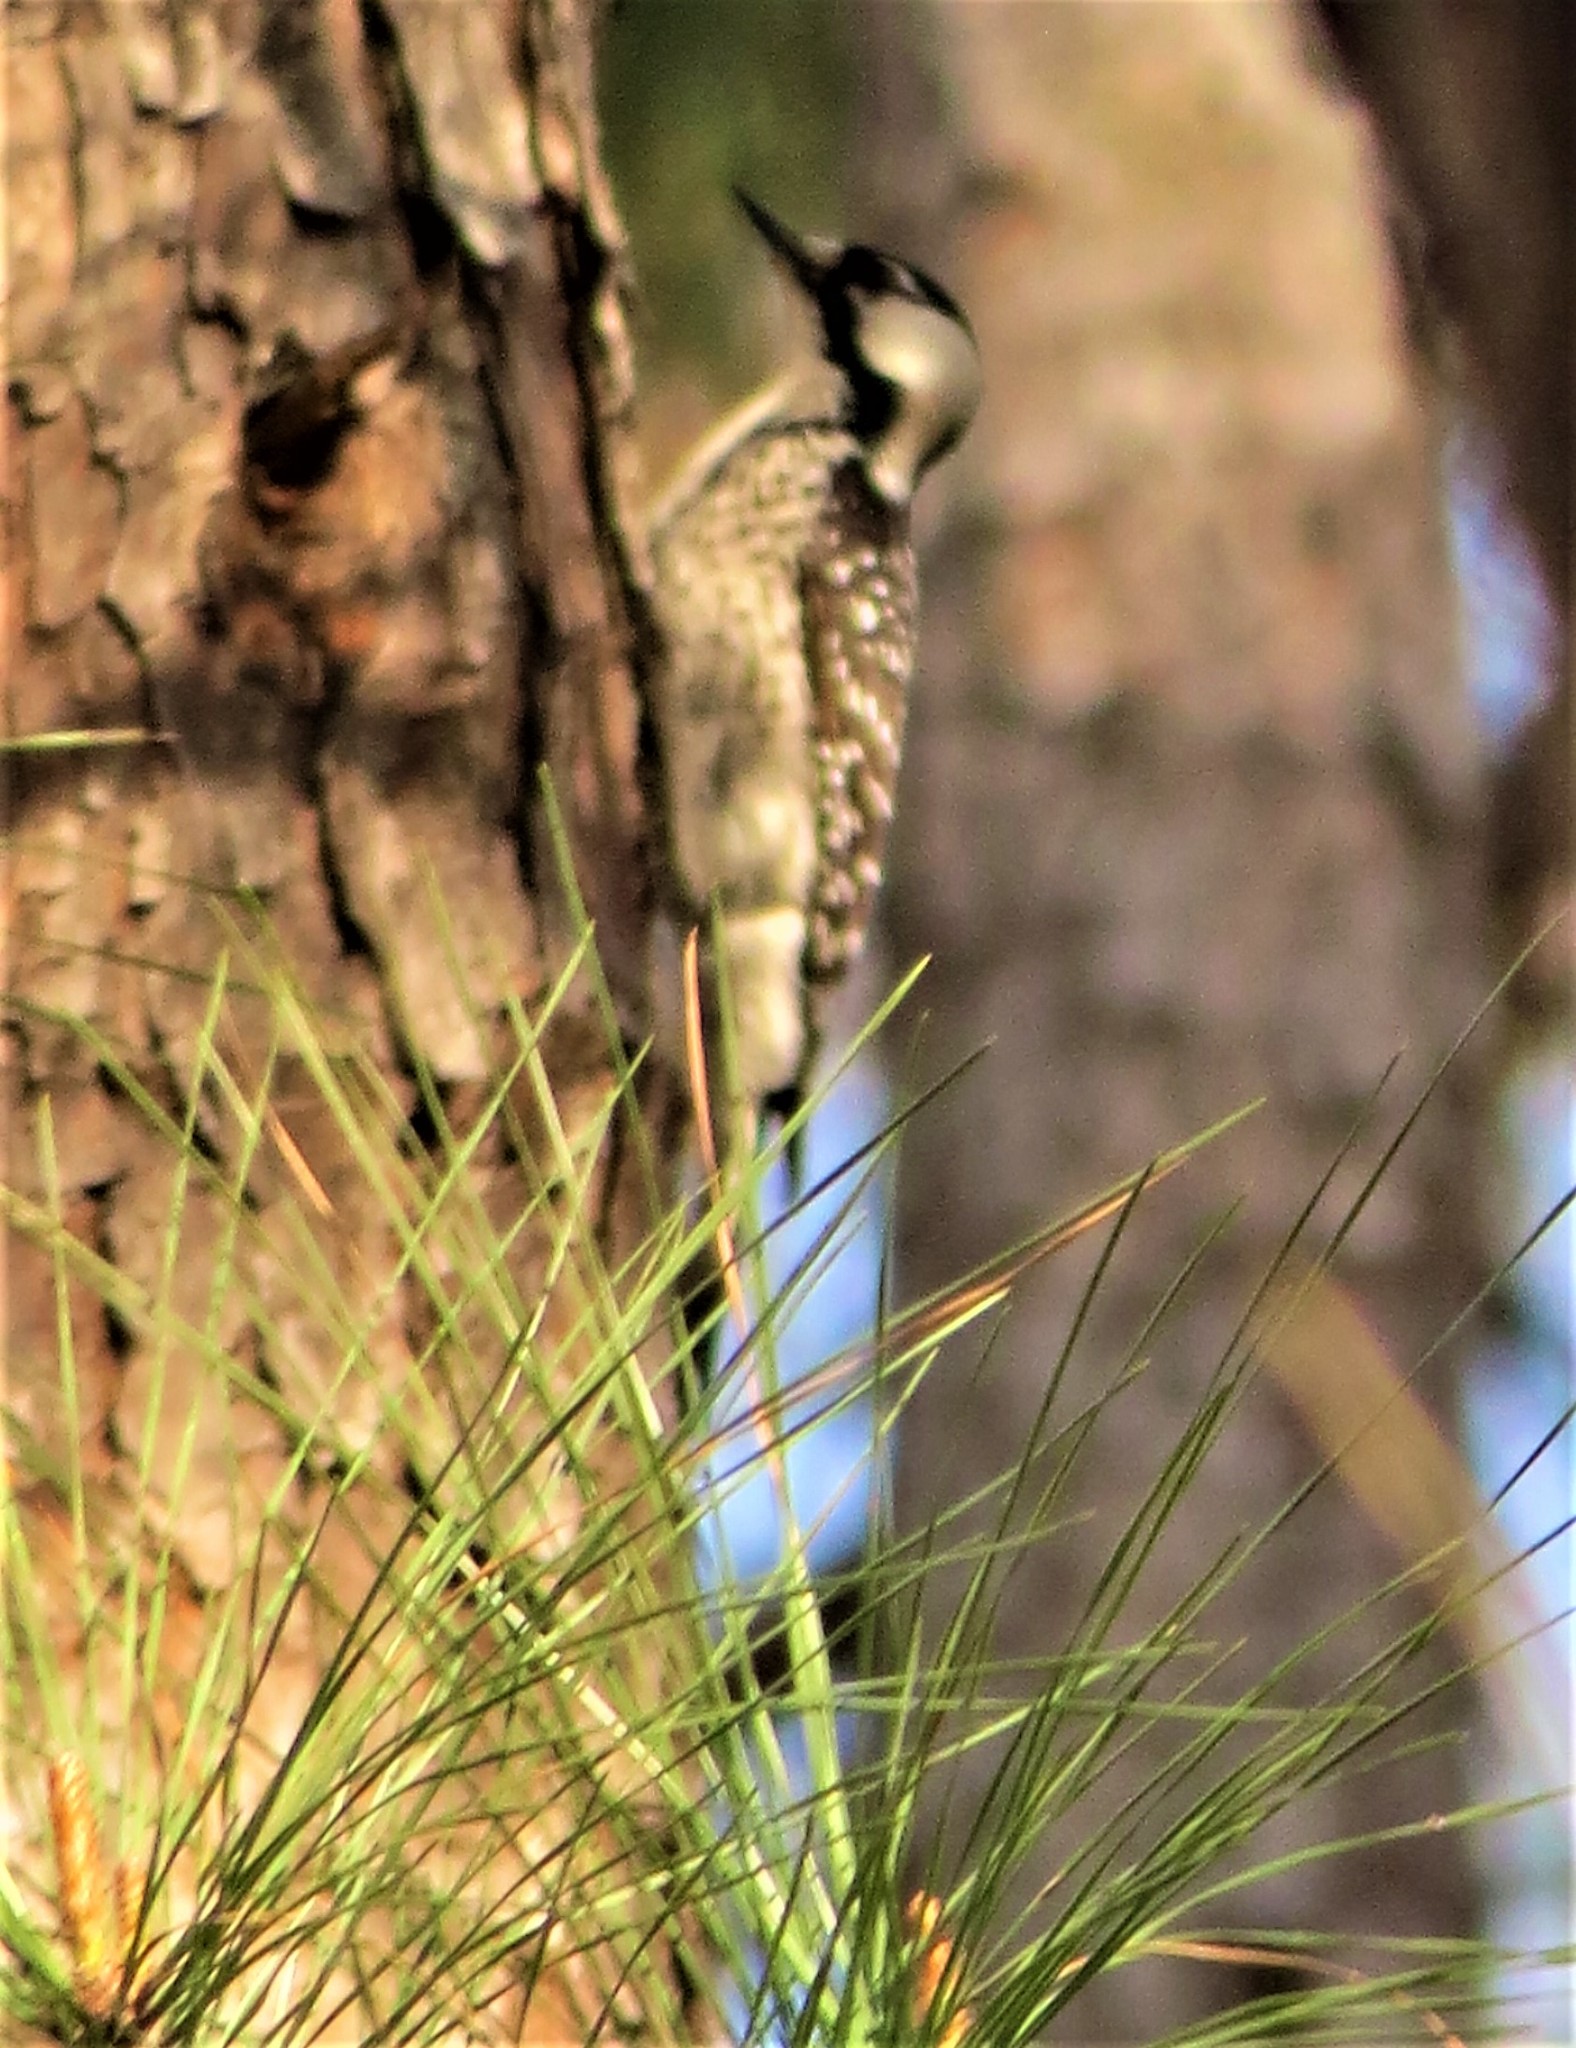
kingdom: Animalia
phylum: Chordata
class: Aves
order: Piciformes
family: Picidae
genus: Leuconotopicus
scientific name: Leuconotopicus borealis
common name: Red-cockaded woodpecker
